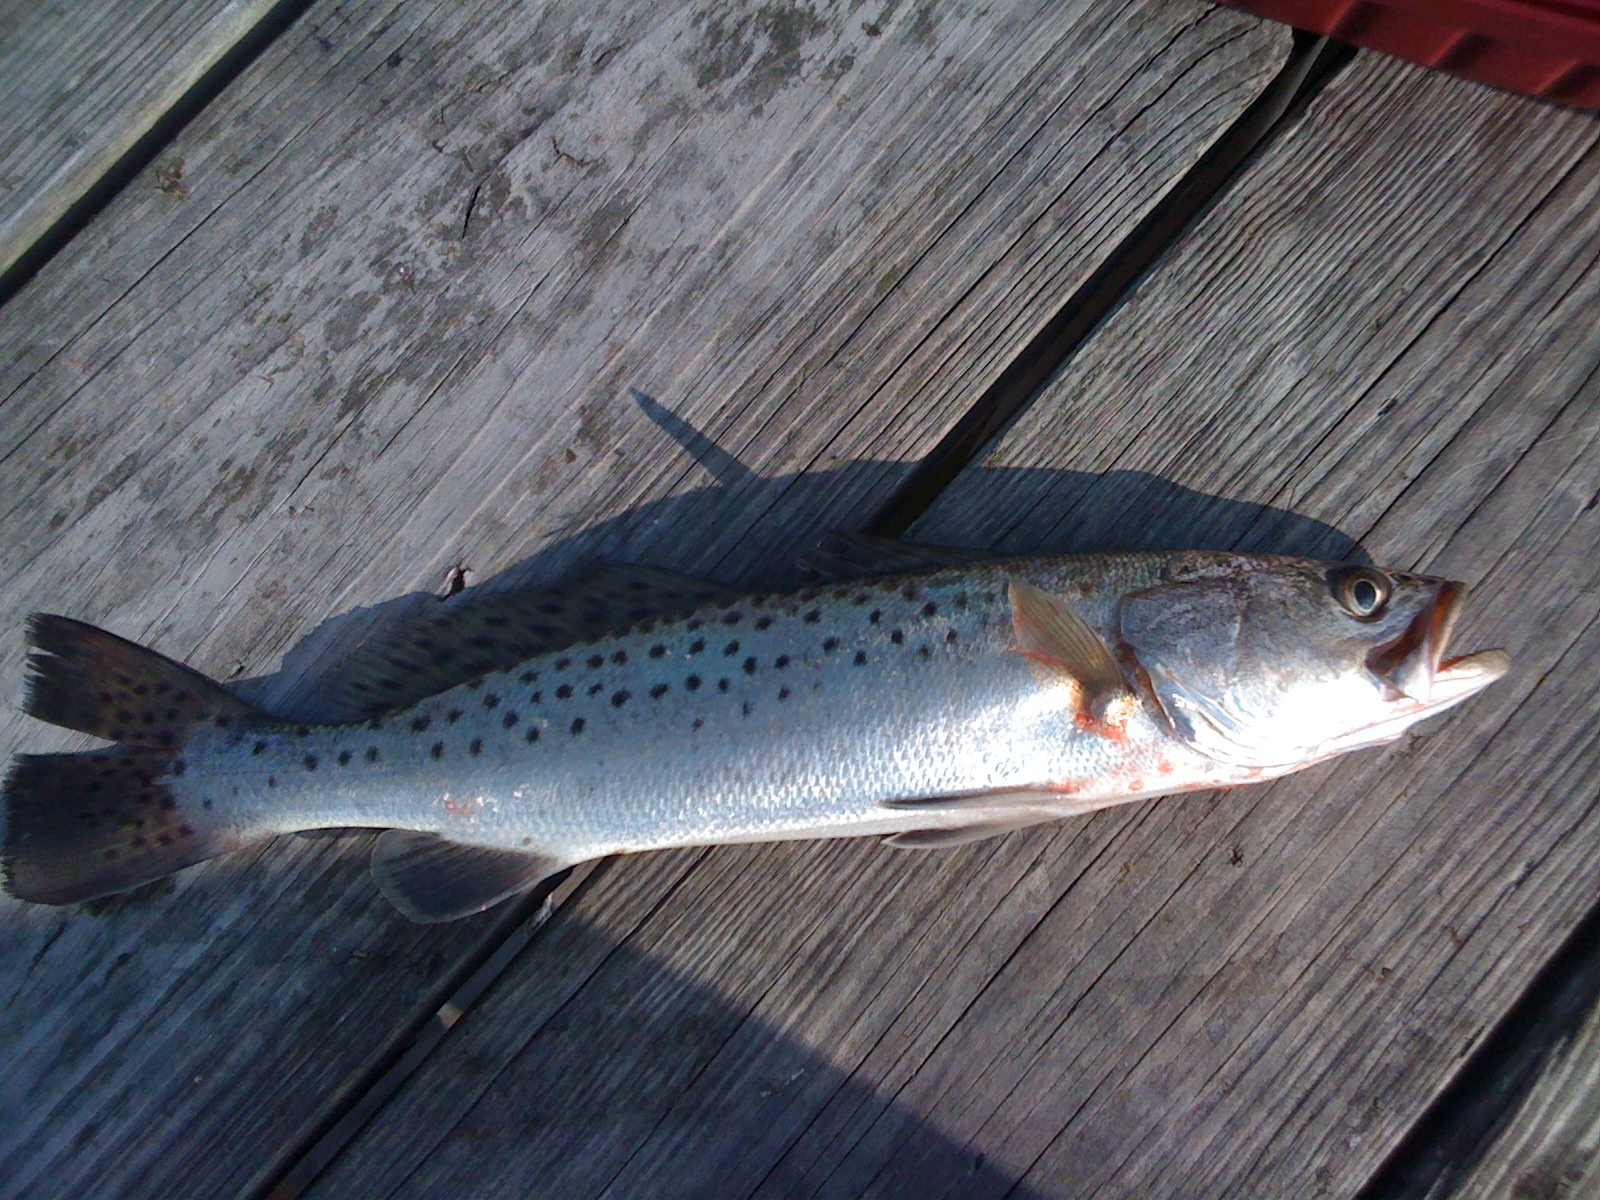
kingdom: Animalia
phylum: Chordata
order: Perciformes
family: Sciaenidae
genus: Cynoscion
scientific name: Cynoscion nebulosus
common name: Spotted seatrout
